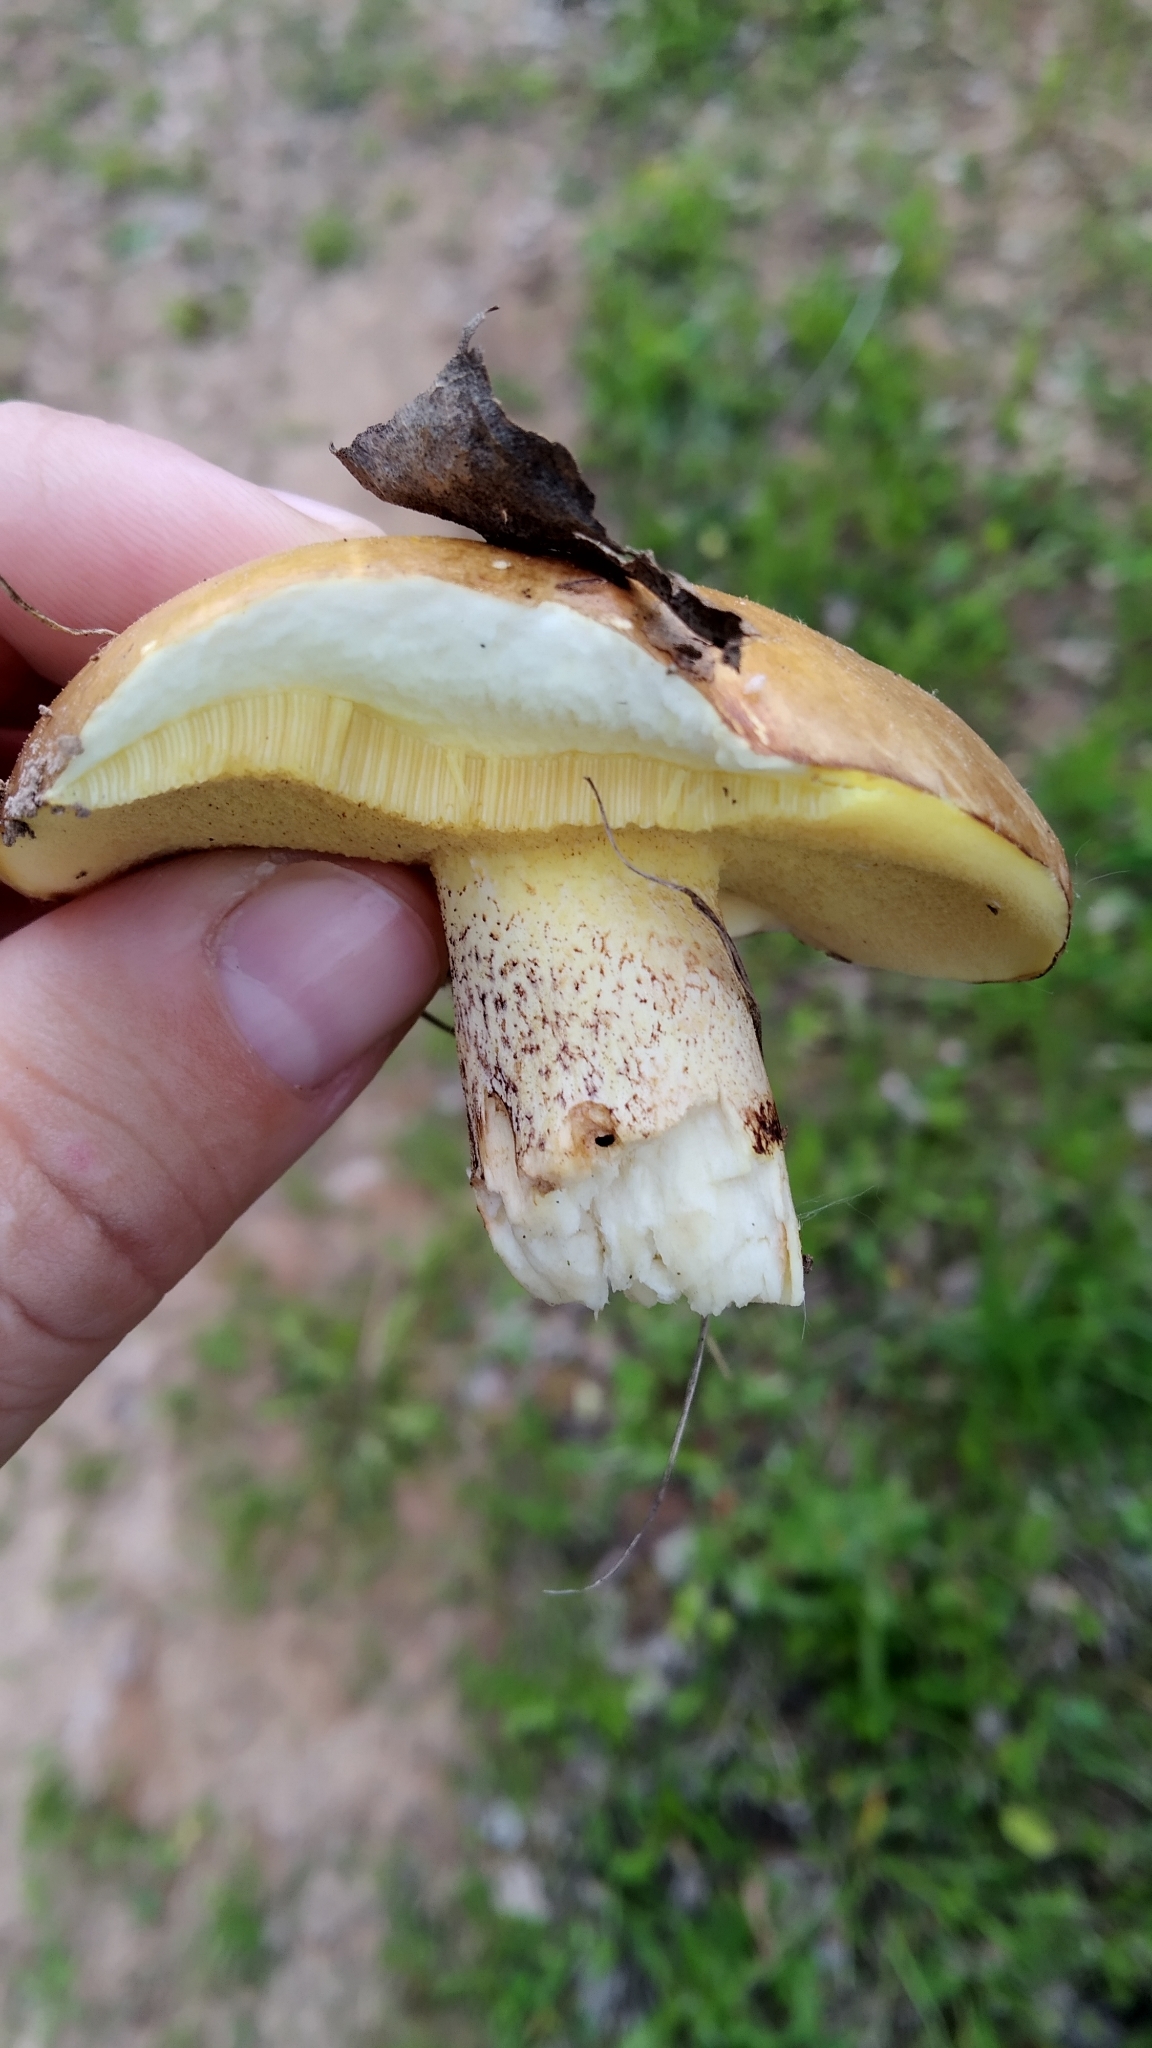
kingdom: Fungi
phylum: Basidiomycota
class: Agaricomycetes
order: Boletales
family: Suillaceae
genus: Suillus
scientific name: Suillus granulatus
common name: Weeping bolete
